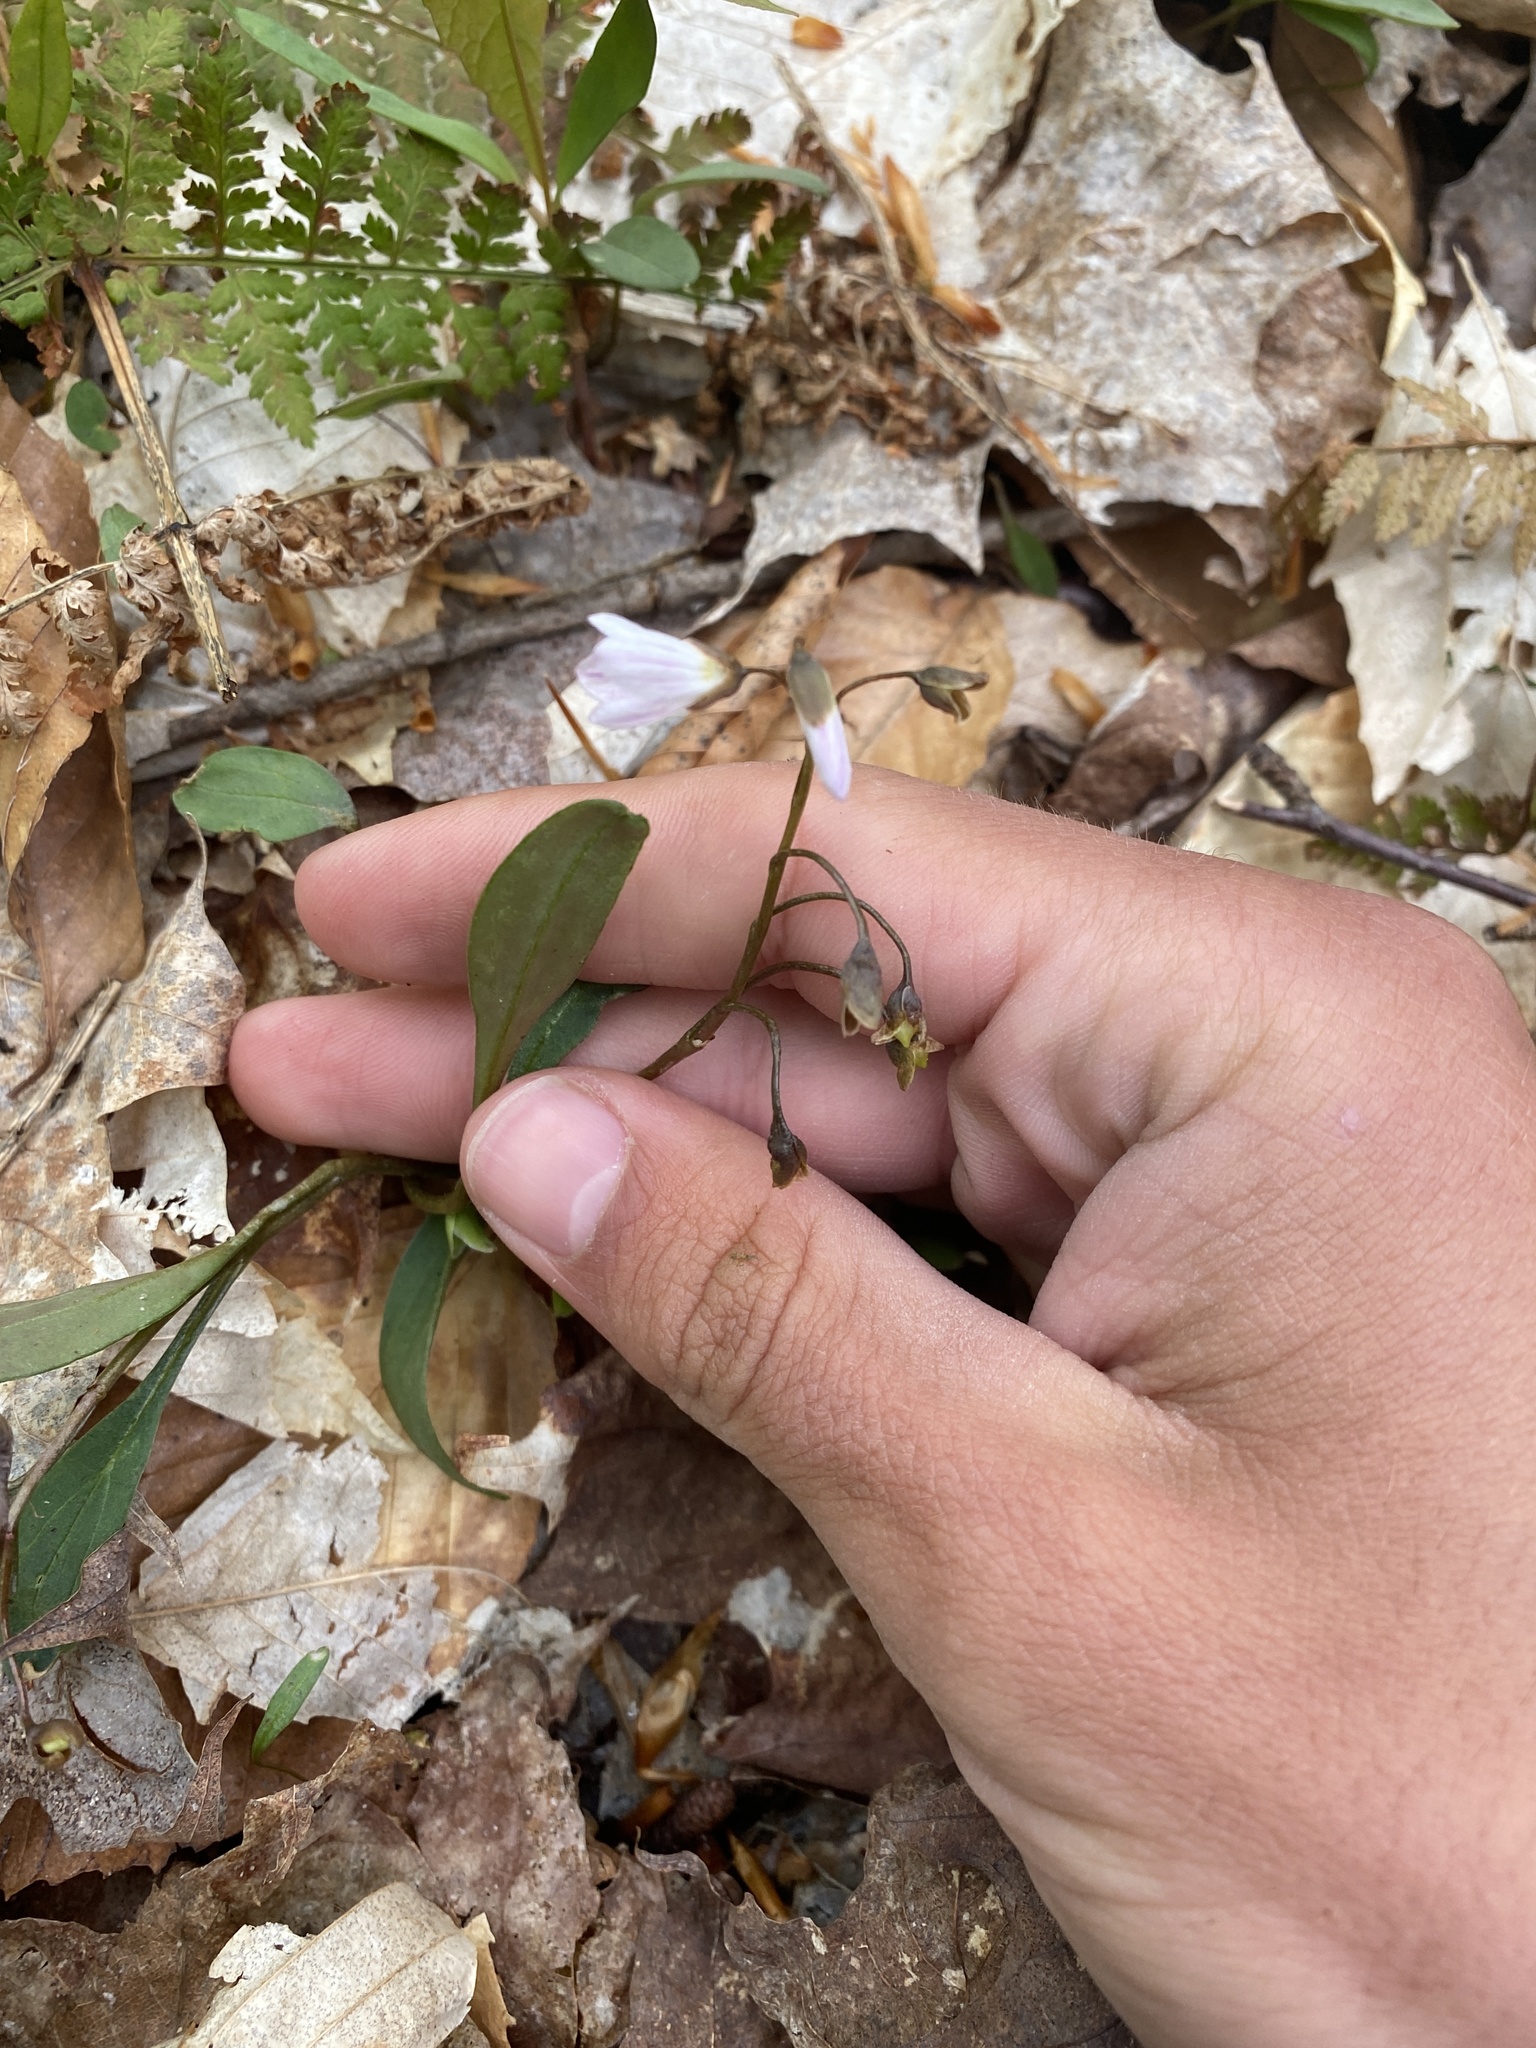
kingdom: Plantae
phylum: Tracheophyta
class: Magnoliopsida
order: Caryophyllales
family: Montiaceae
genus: Claytonia
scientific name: Claytonia caroliniana
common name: Carolina spring beauty
